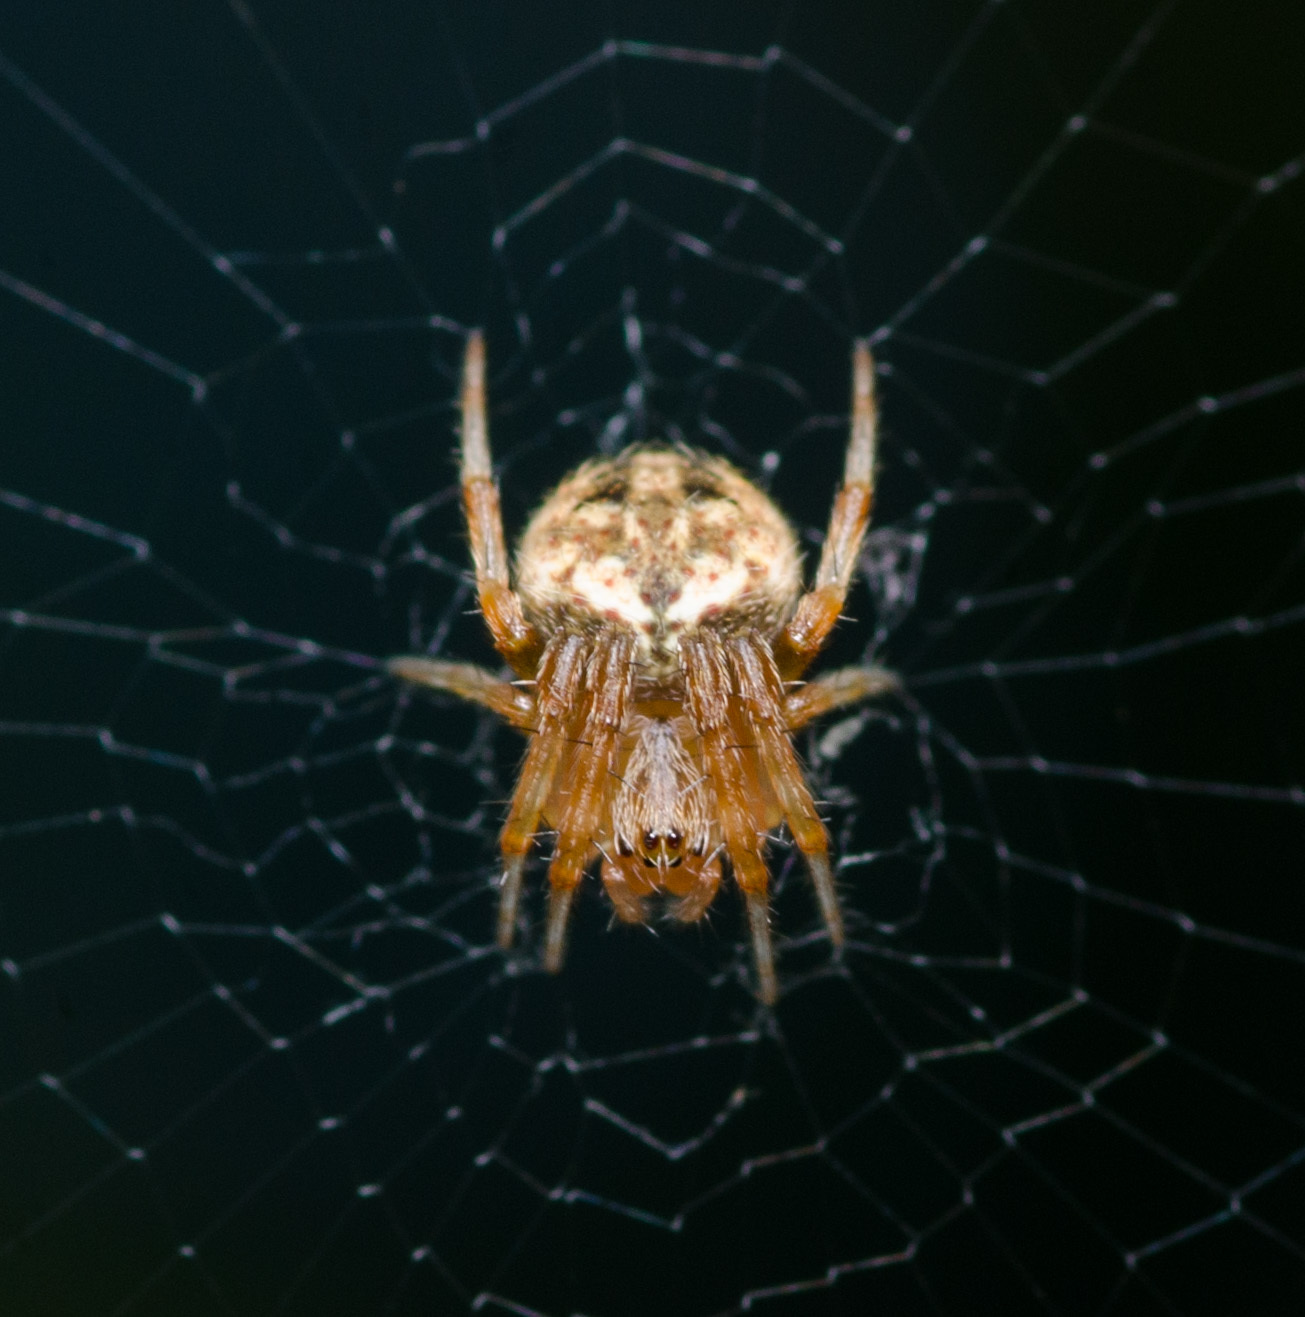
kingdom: Animalia
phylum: Arthropoda
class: Arachnida
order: Araneae
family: Araneidae
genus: Neoscona
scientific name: Neoscona arabesca
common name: Orb weavers
